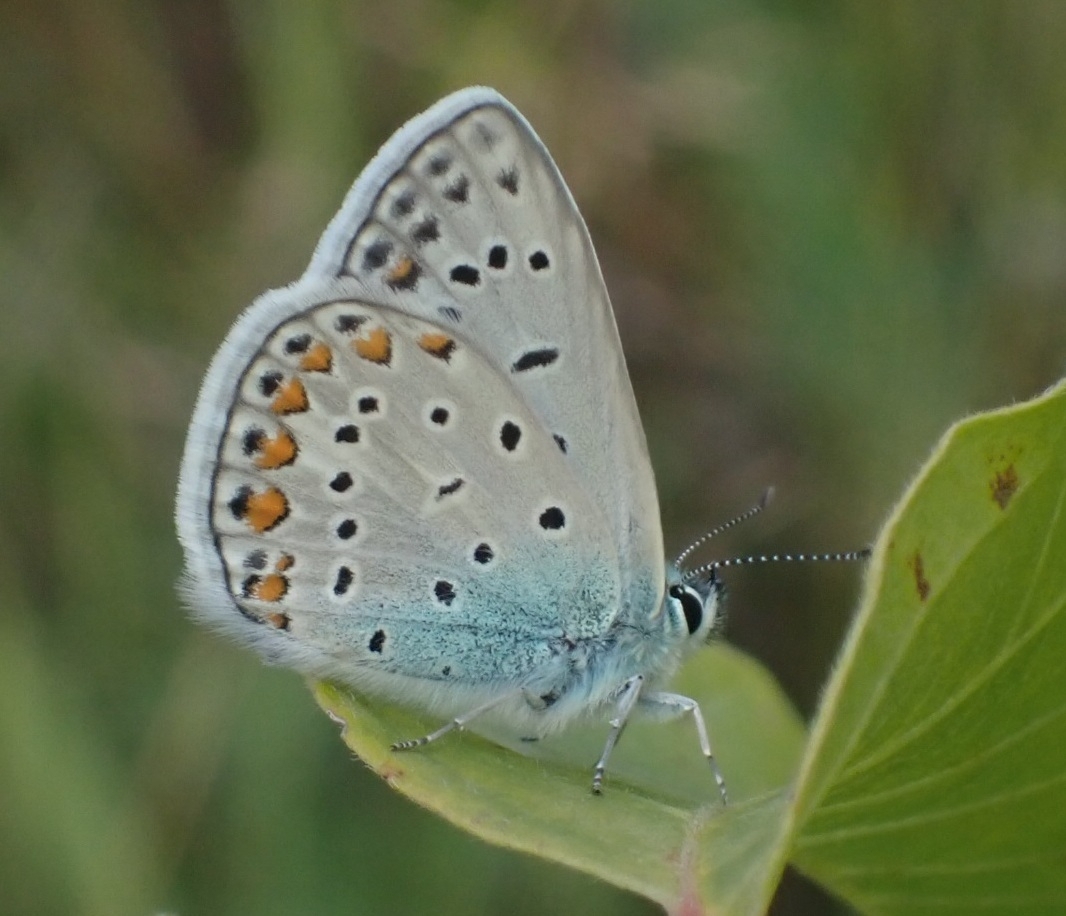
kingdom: Animalia
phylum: Arthropoda
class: Insecta
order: Lepidoptera
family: Lycaenidae
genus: Polyommatus
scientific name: Polyommatus icarus
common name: Common blue
